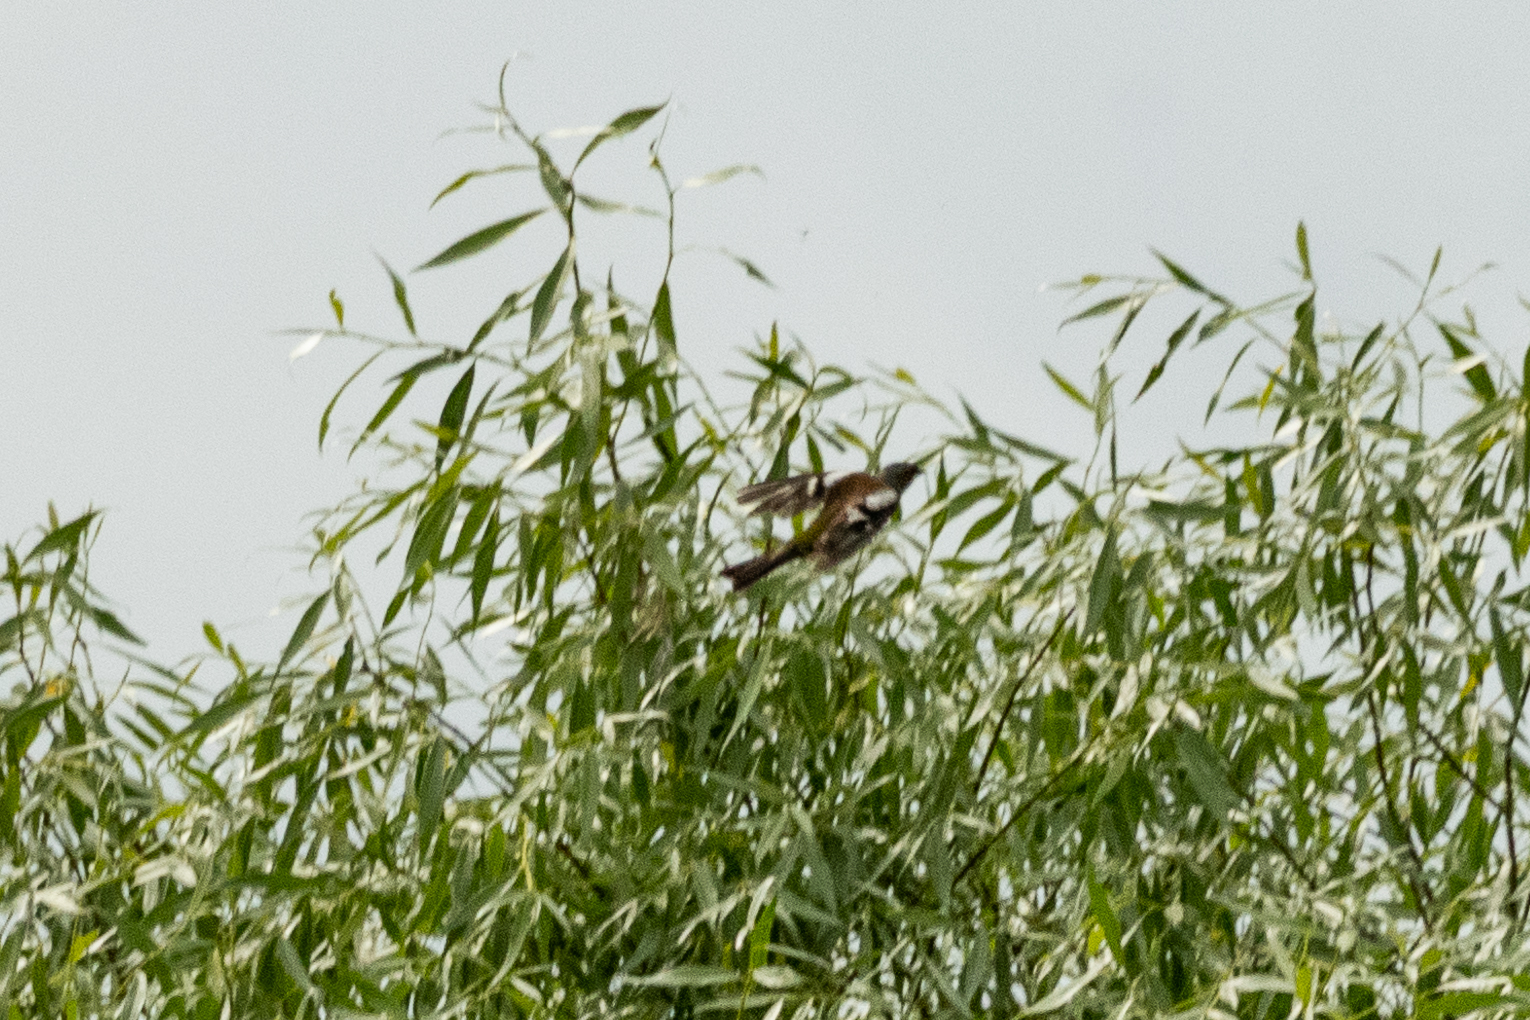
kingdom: Animalia
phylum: Chordata
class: Aves
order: Passeriformes
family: Fringillidae
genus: Fringilla
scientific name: Fringilla coelebs
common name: Common chaffinch
